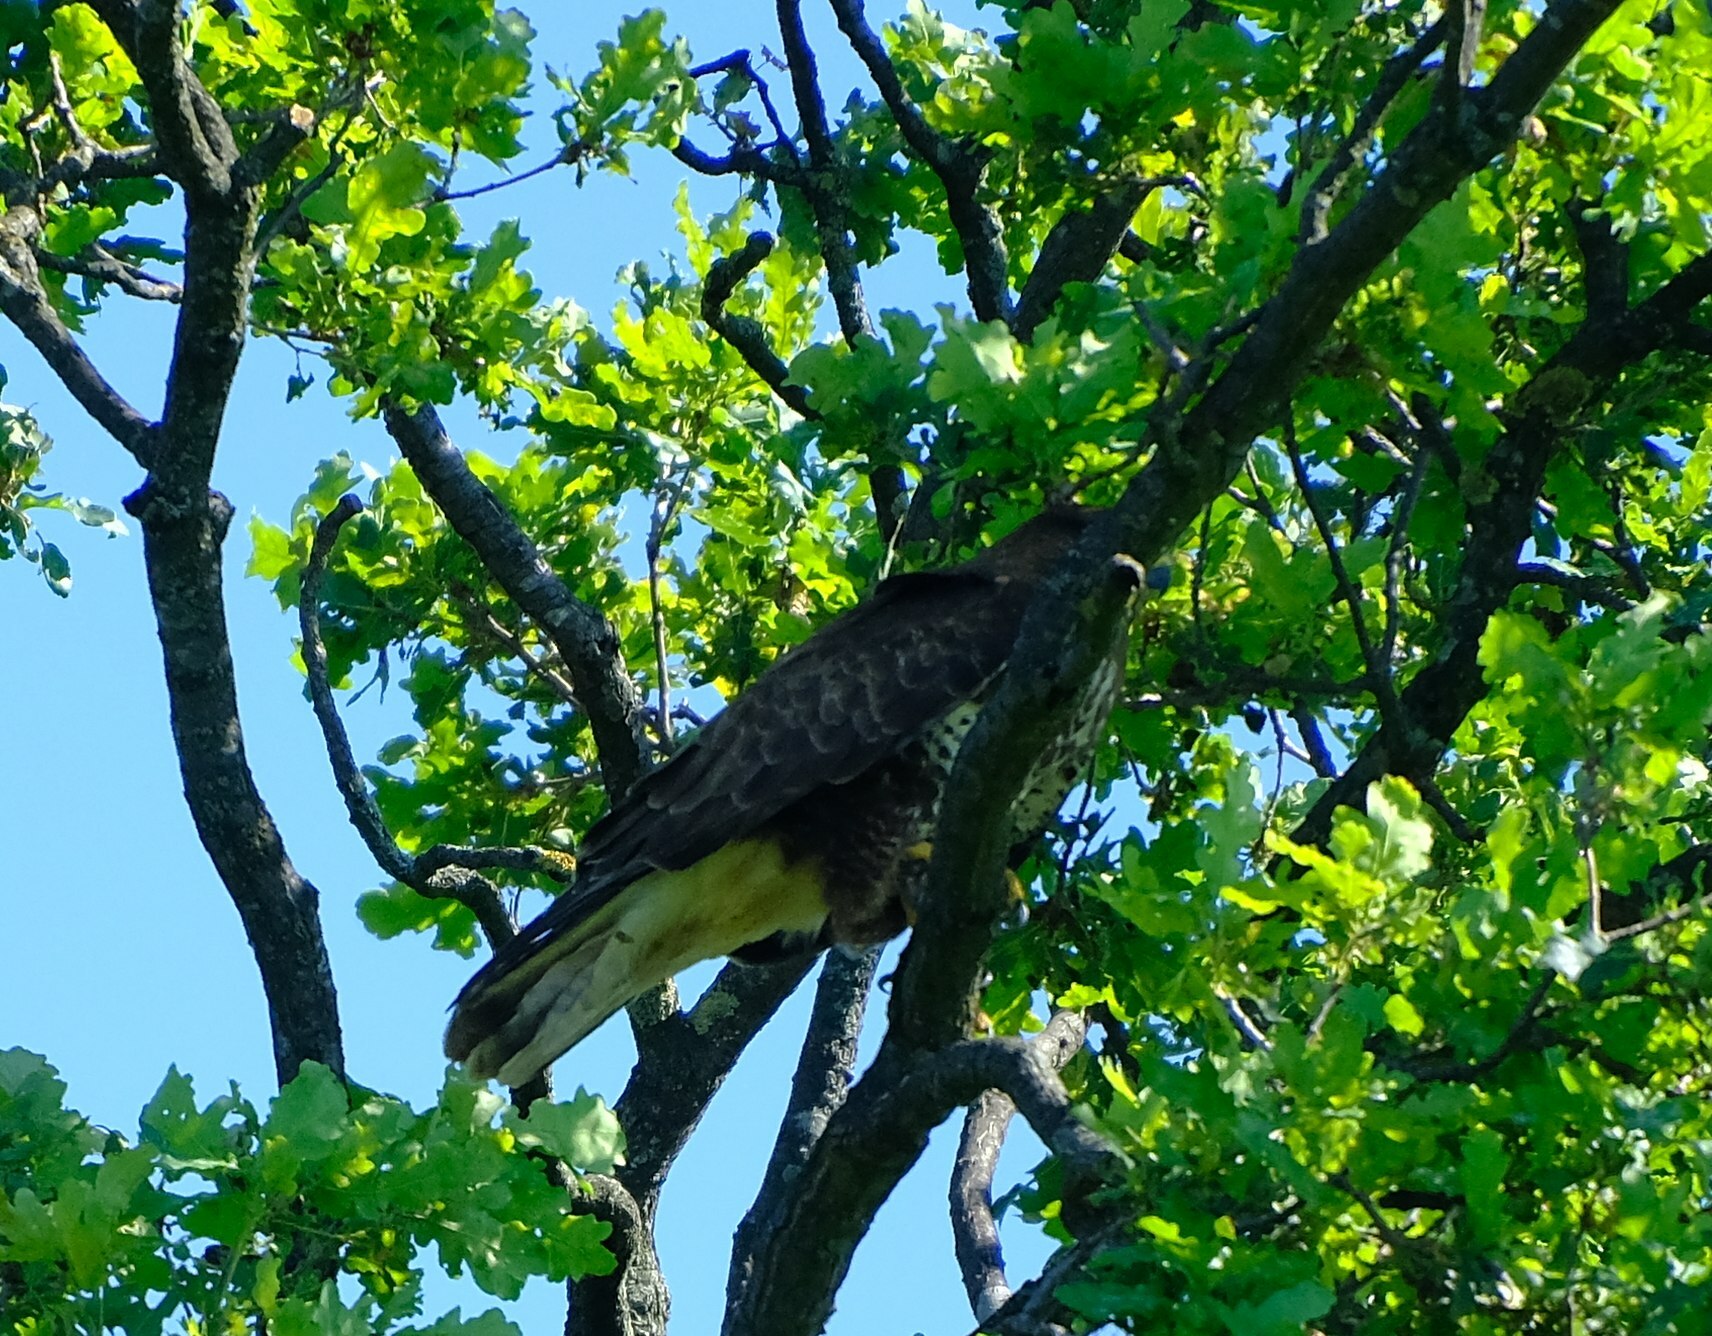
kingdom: Animalia
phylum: Chordata
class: Aves
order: Accipitriformes
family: Accipitridae
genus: Buteo
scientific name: Buteo buteo
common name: Common buzzard
